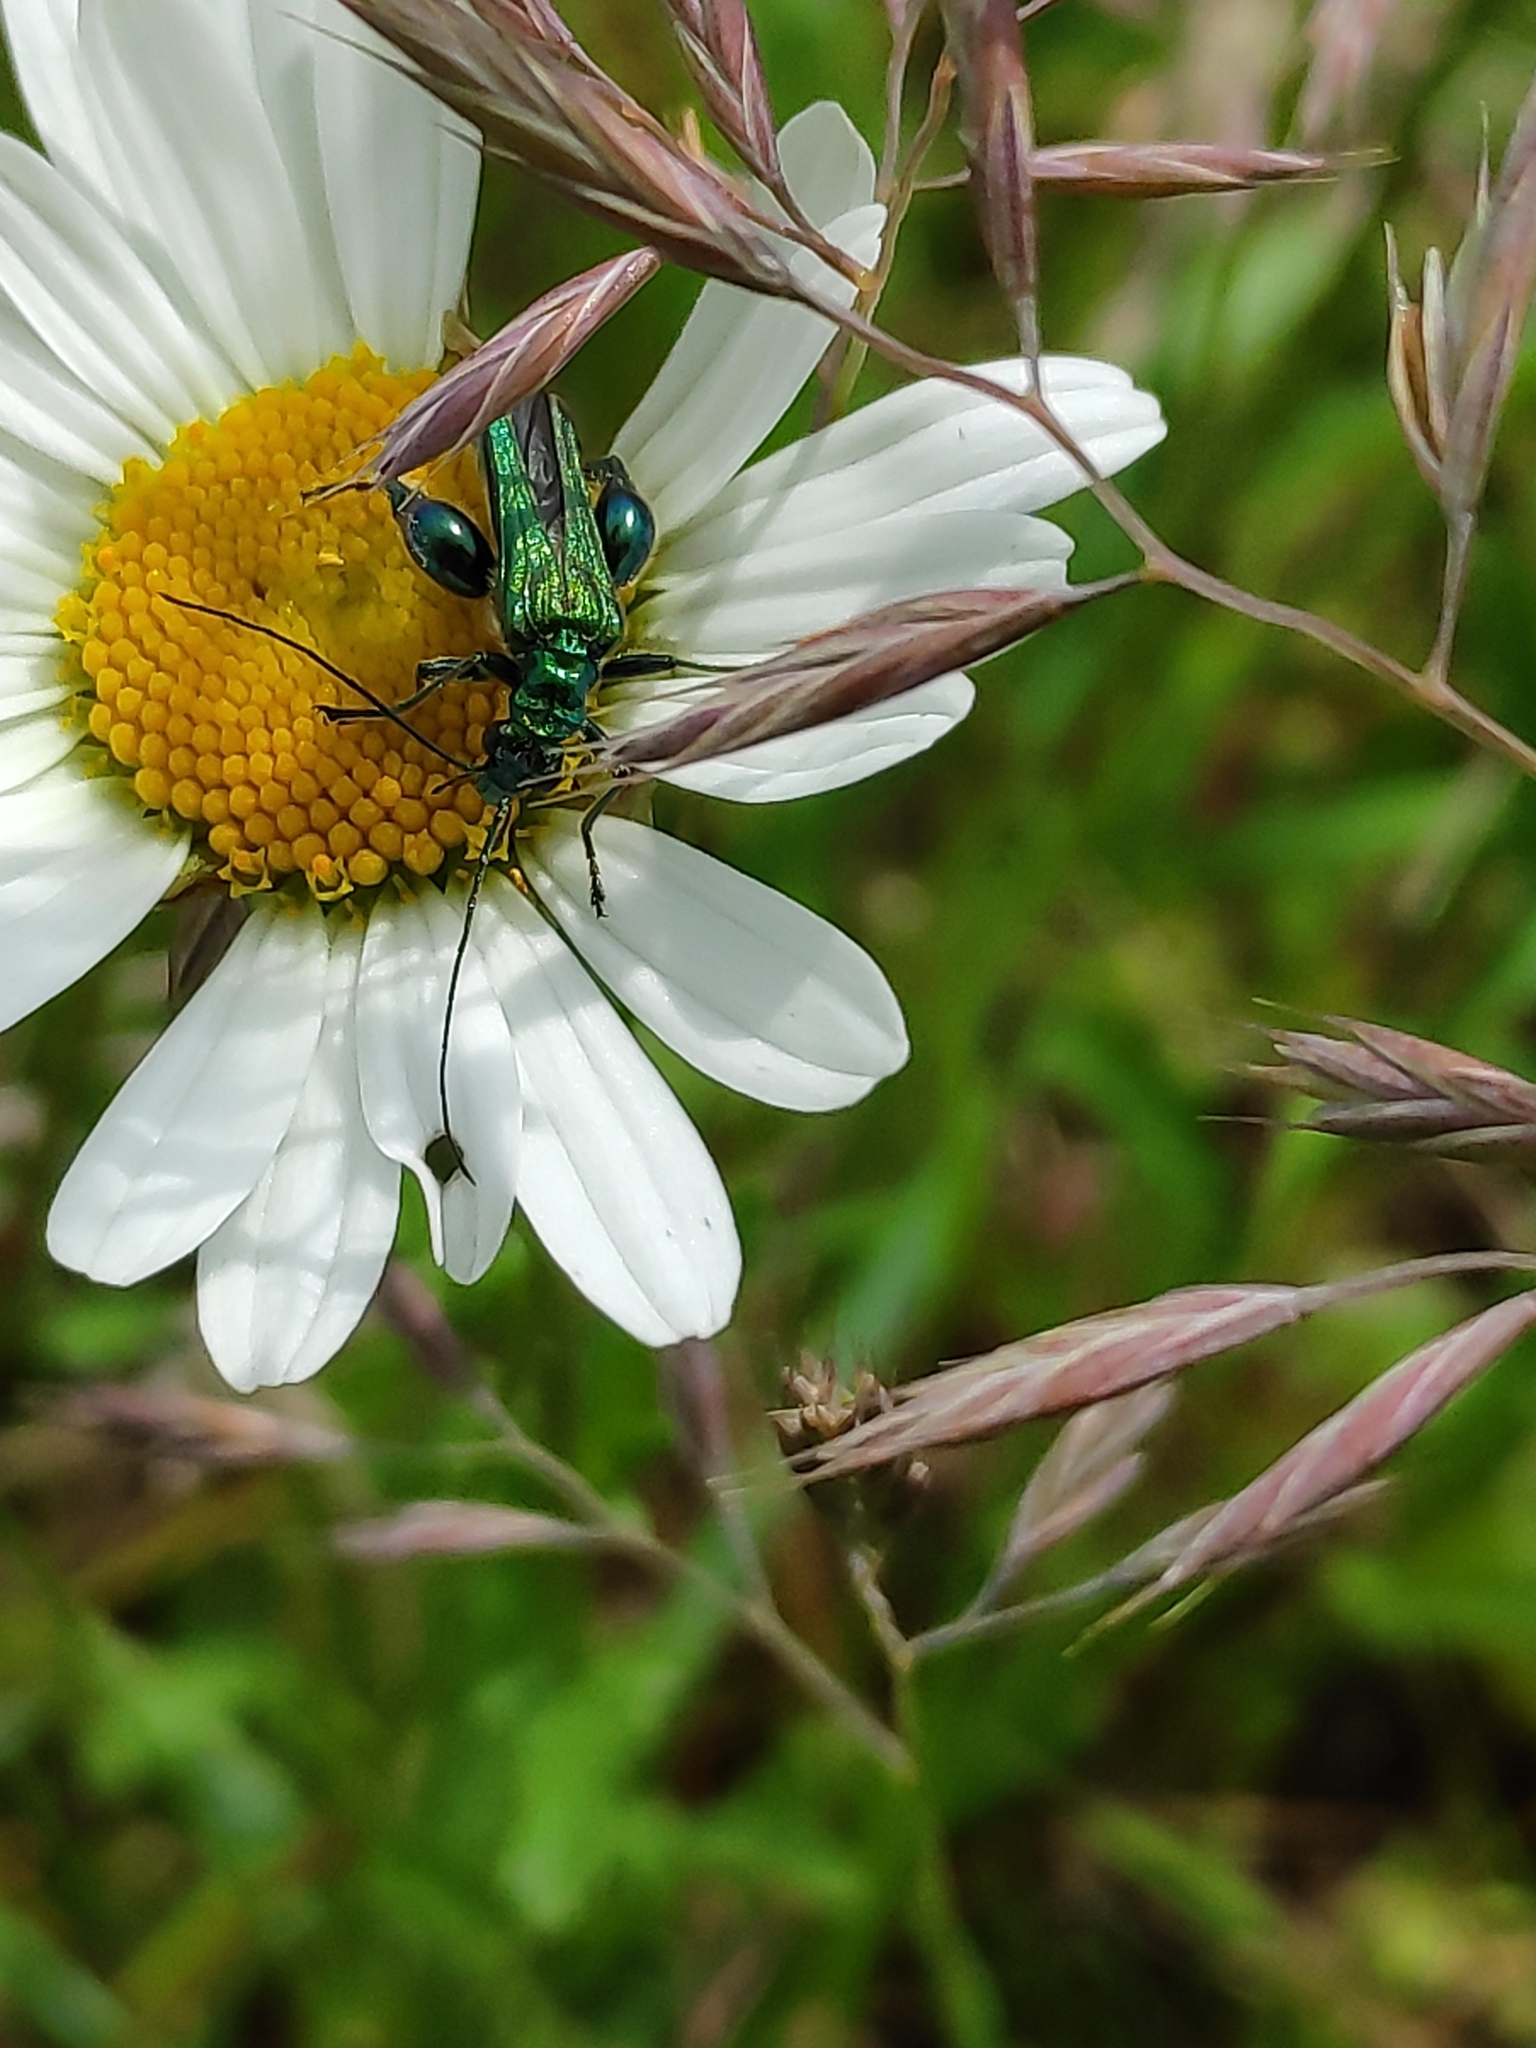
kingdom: Animalia
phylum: Arthropoda
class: Insecta
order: Coleoptera
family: Oedemeridae
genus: Oedemera
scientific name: Oedemera nobilis
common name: Swollen-thighed beetle
